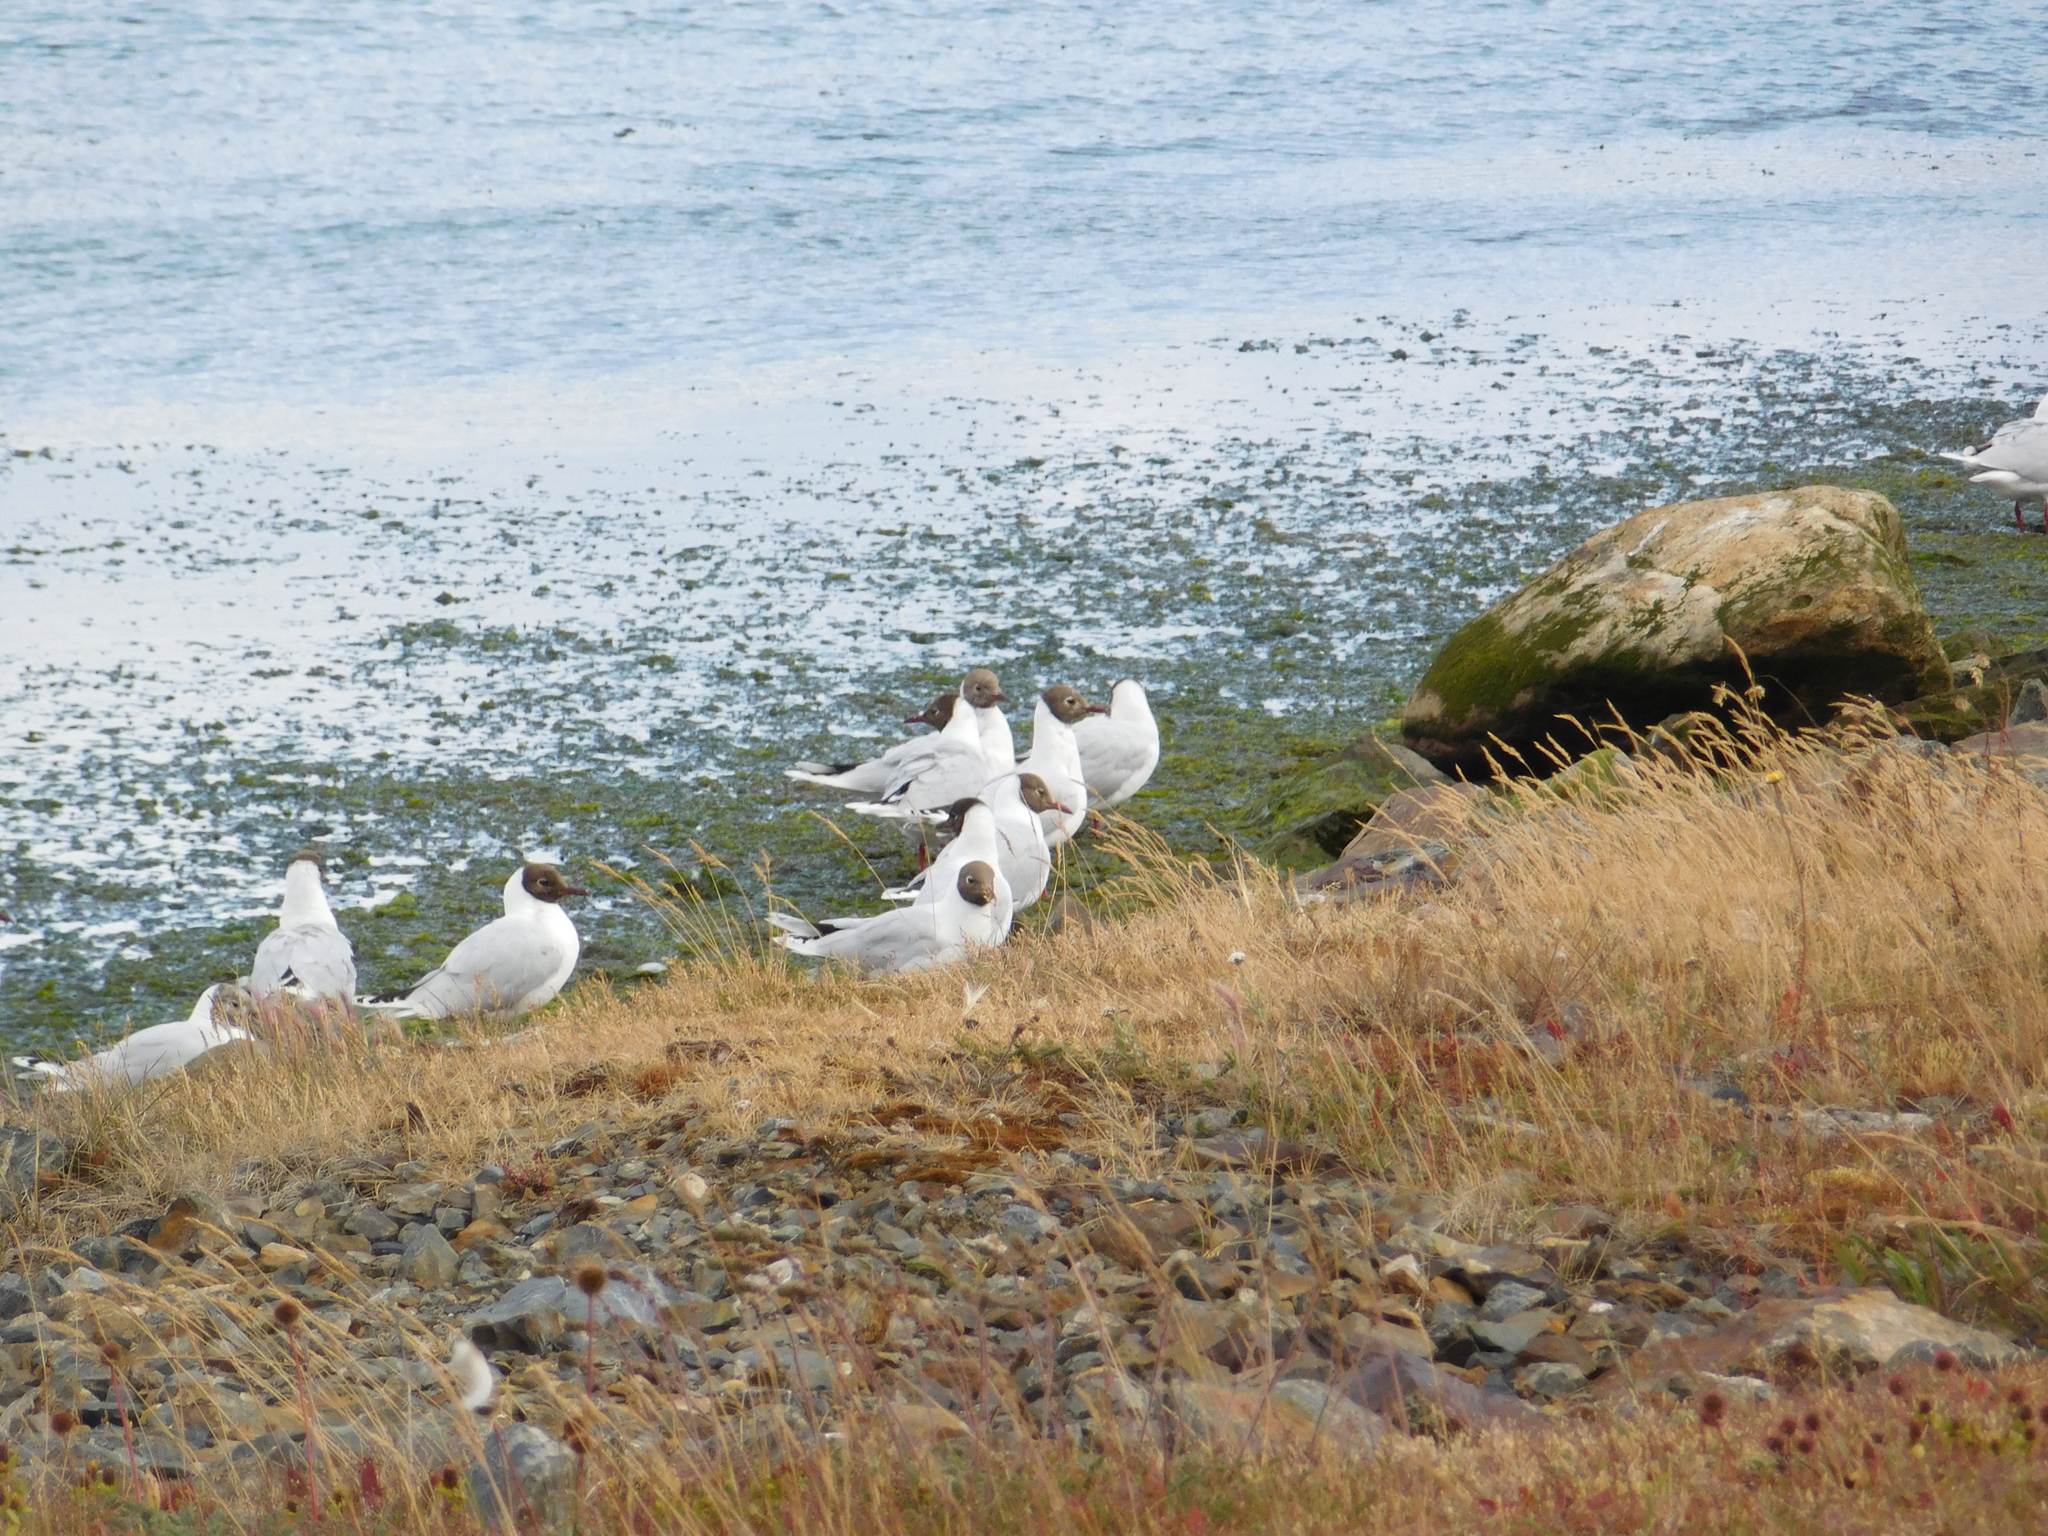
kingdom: Animalia
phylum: Chordata
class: Aves
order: Charadriiformes
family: Laridae
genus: Chroicocephalus
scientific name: Chroicocephalus maculipennis
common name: Brown-hooded gull
